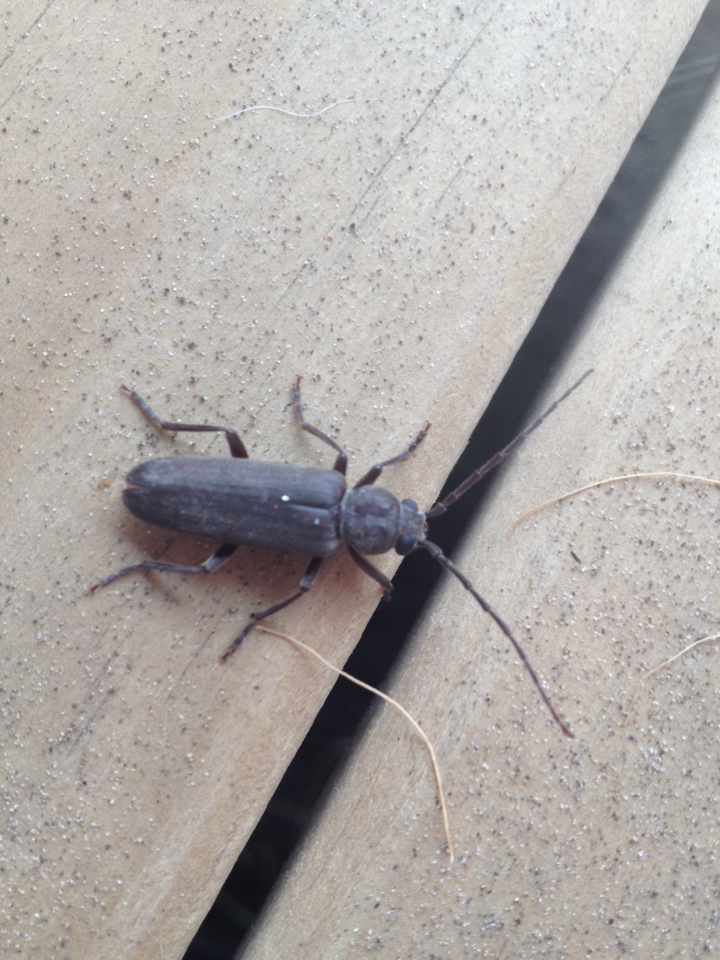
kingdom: Animalia
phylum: Arthropoda
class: Insecta
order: Coleoptera
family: Cerambycidae
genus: Arhopalus
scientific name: Arhopalus ferus
